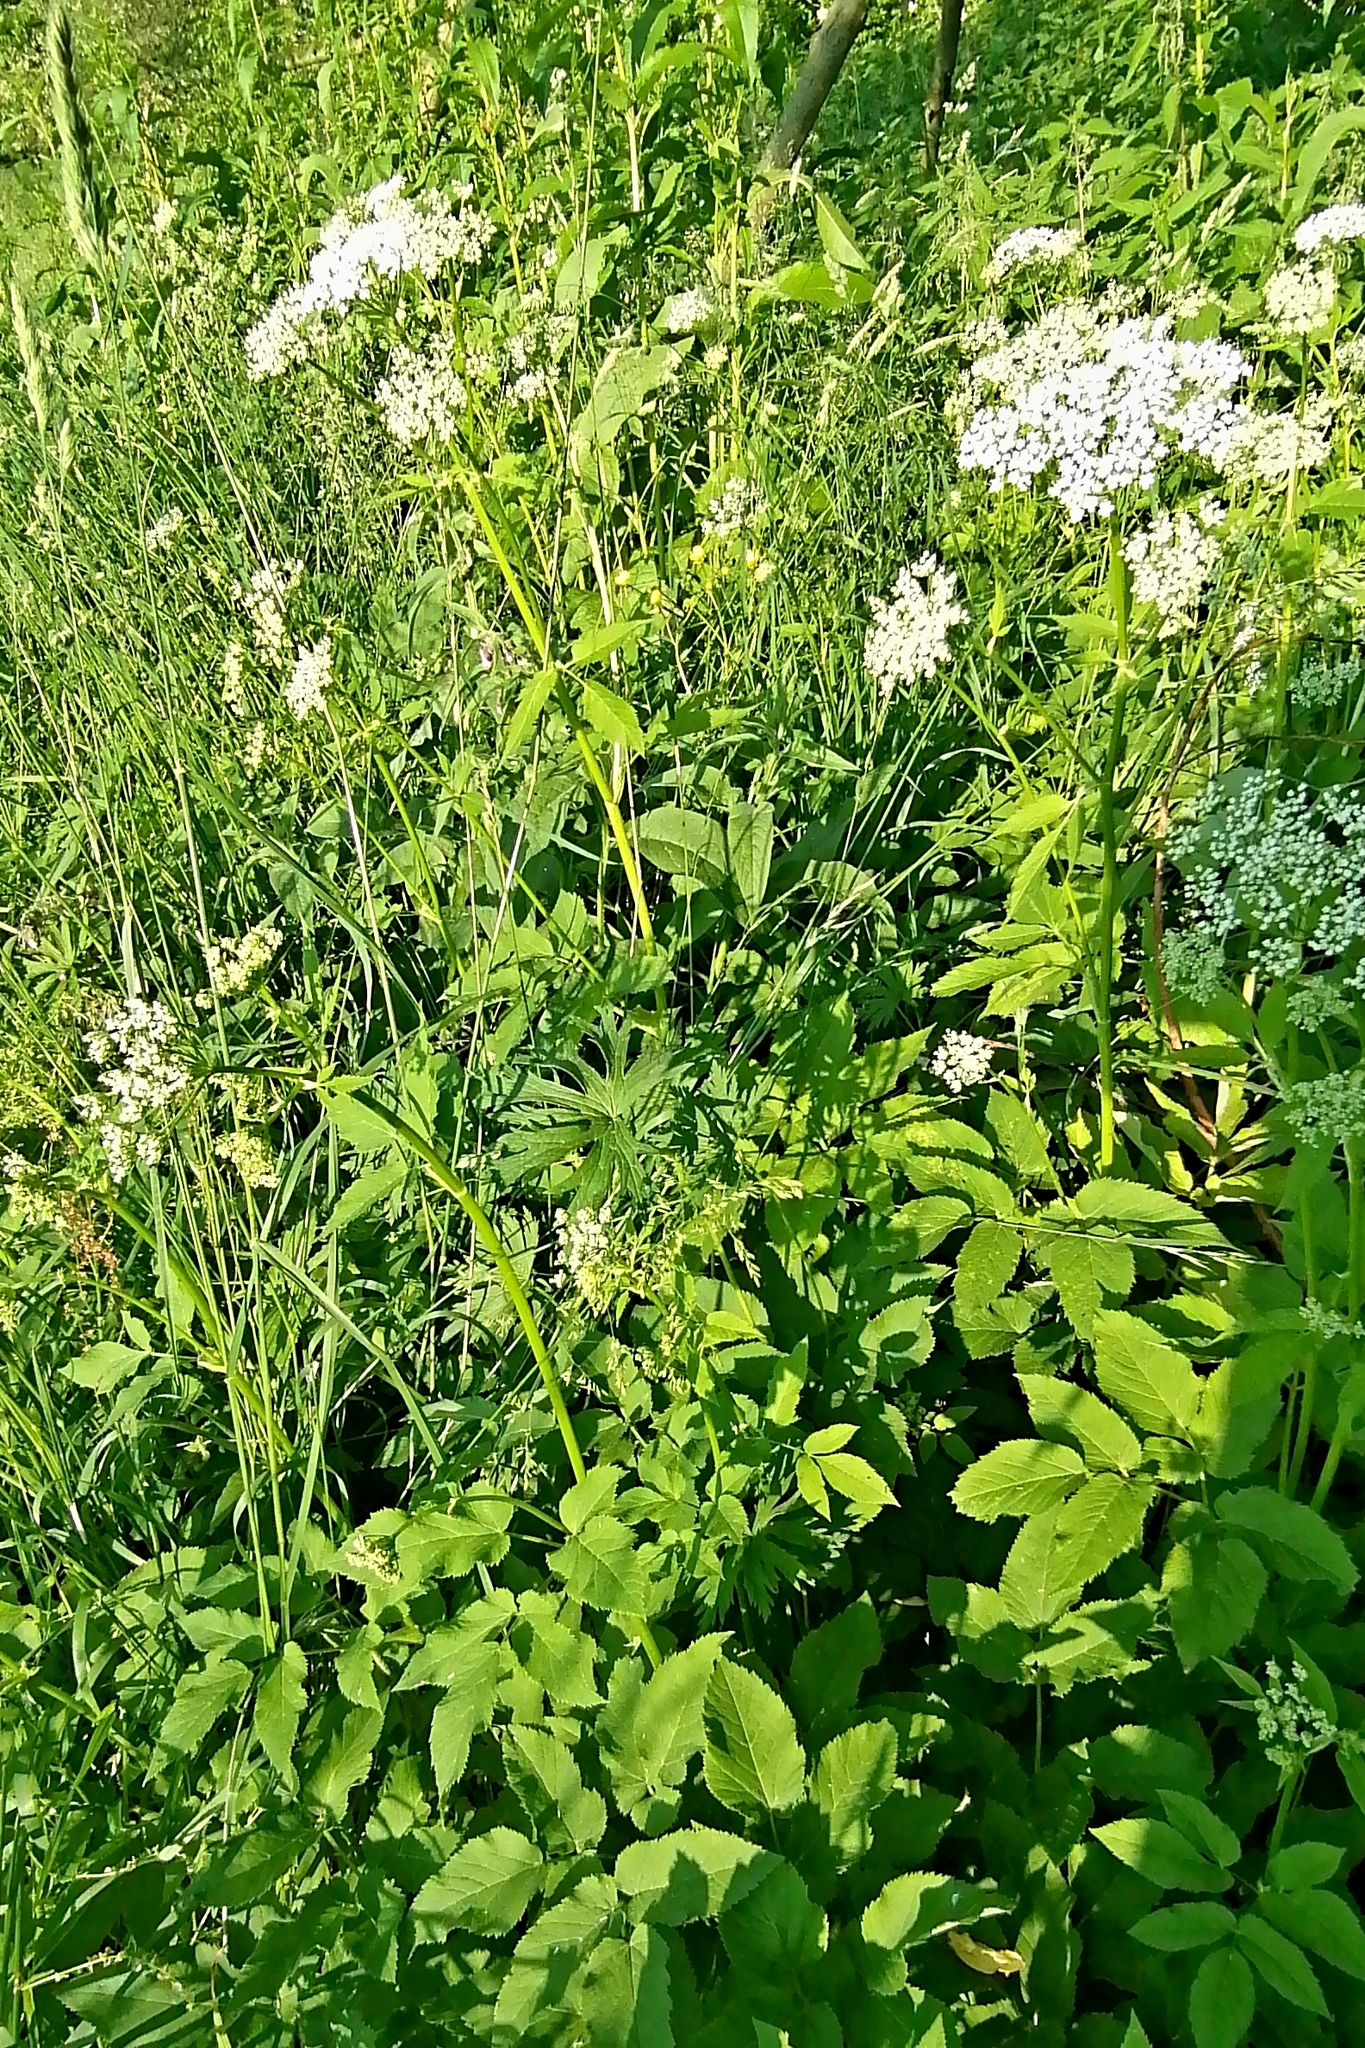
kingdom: Plantae
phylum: Tracheophyta
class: Magnoliopsida
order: Apiales
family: Apiaceae
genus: Aegopodium
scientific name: Aegopodium podagraria
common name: Ground-elder
